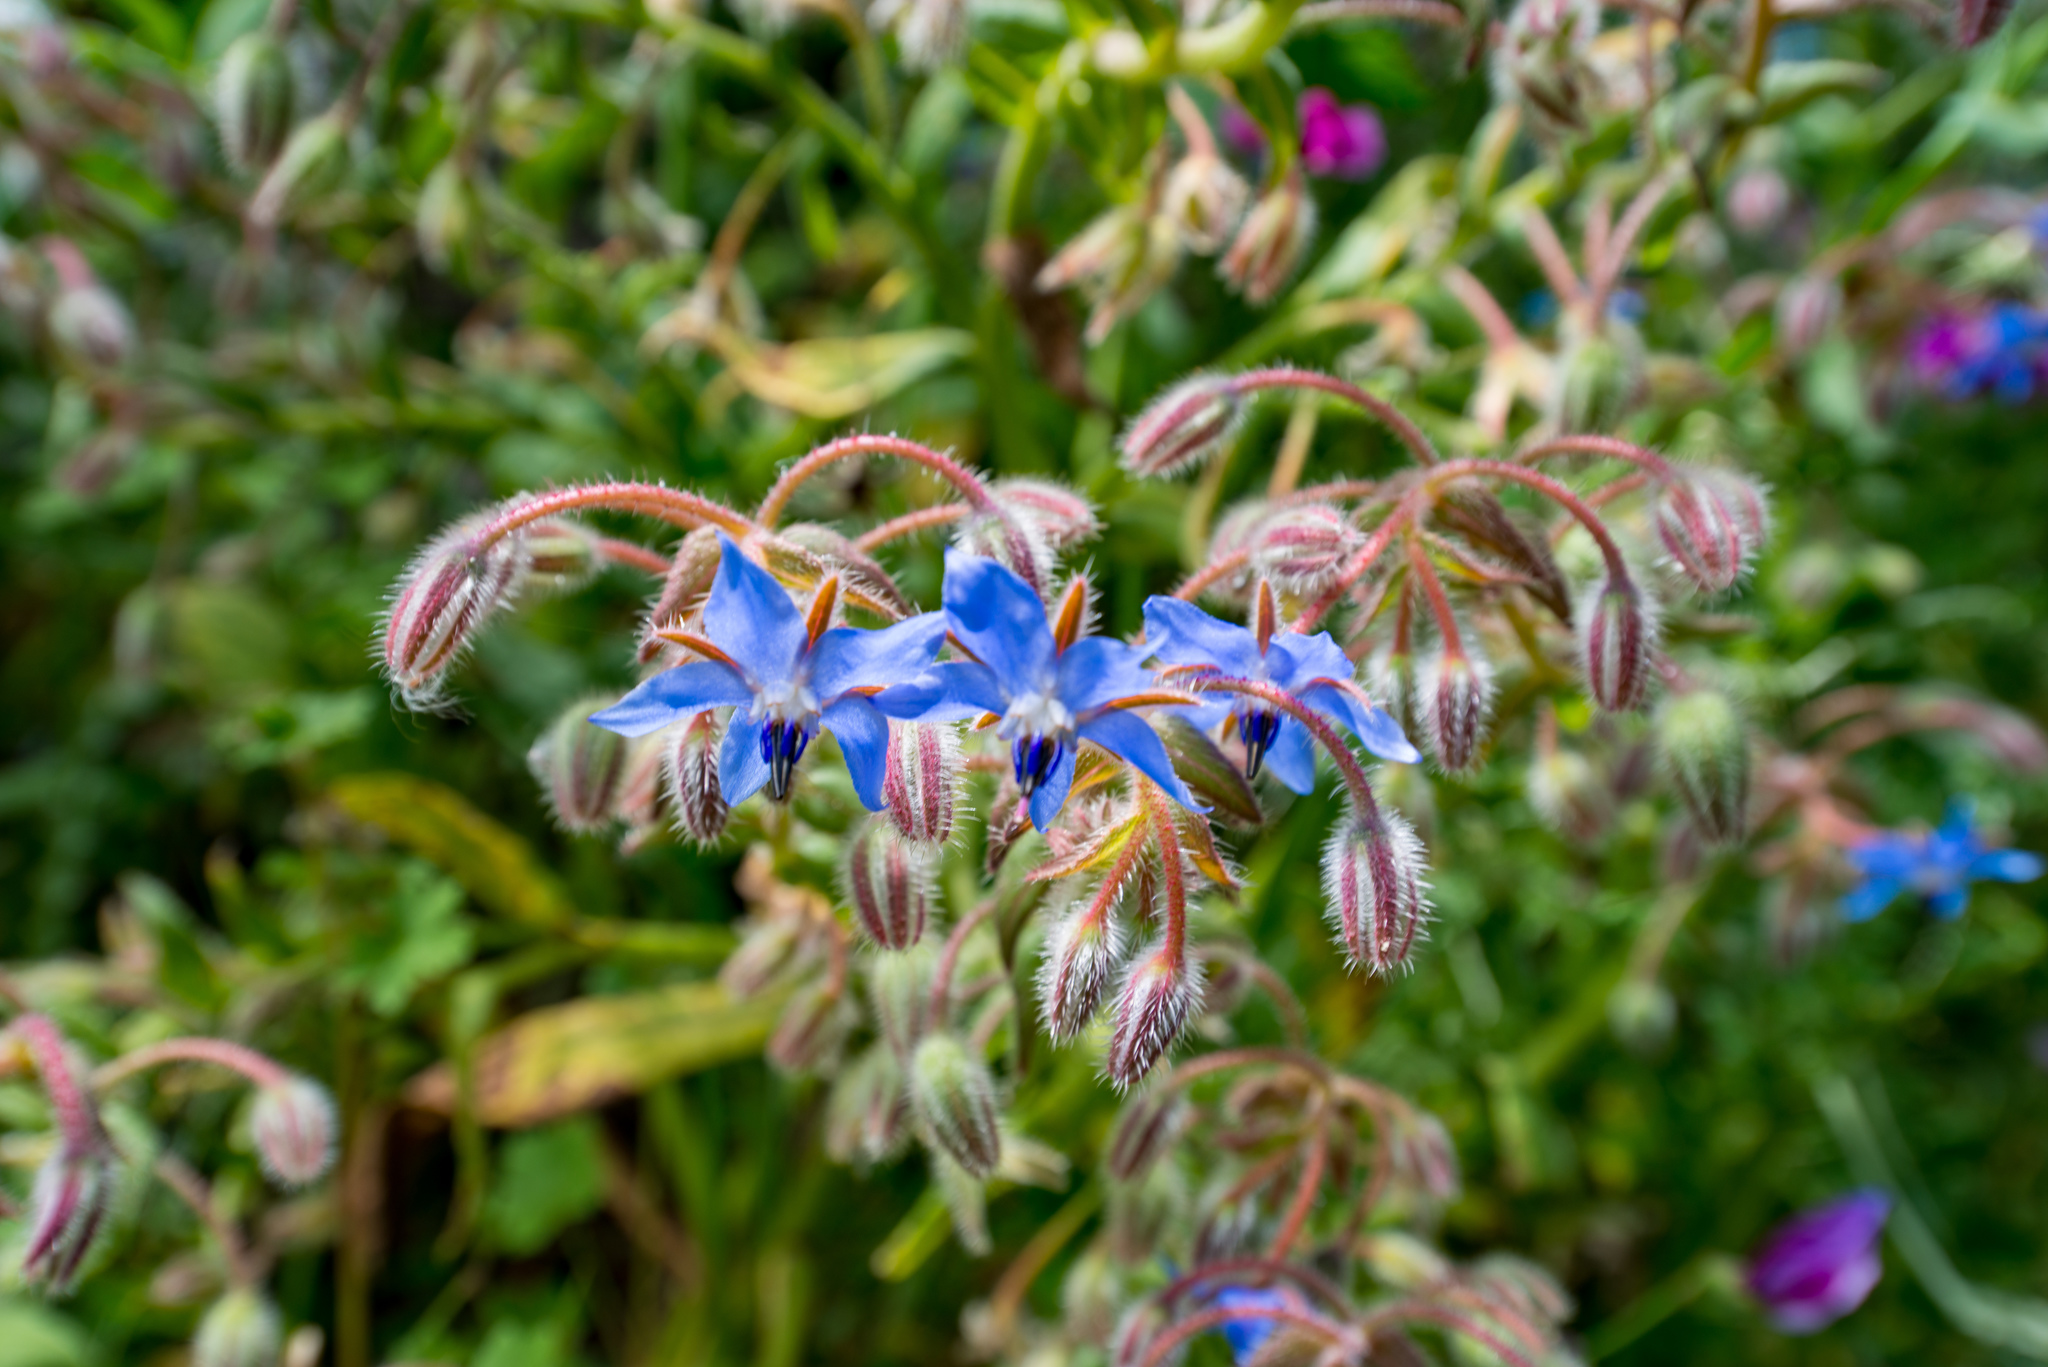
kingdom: Plantae
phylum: Tracheophyta
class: Magnoliopsida
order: Boraginales
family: Boraginaceae
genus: Borago
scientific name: Borago officinalis
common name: Borage
